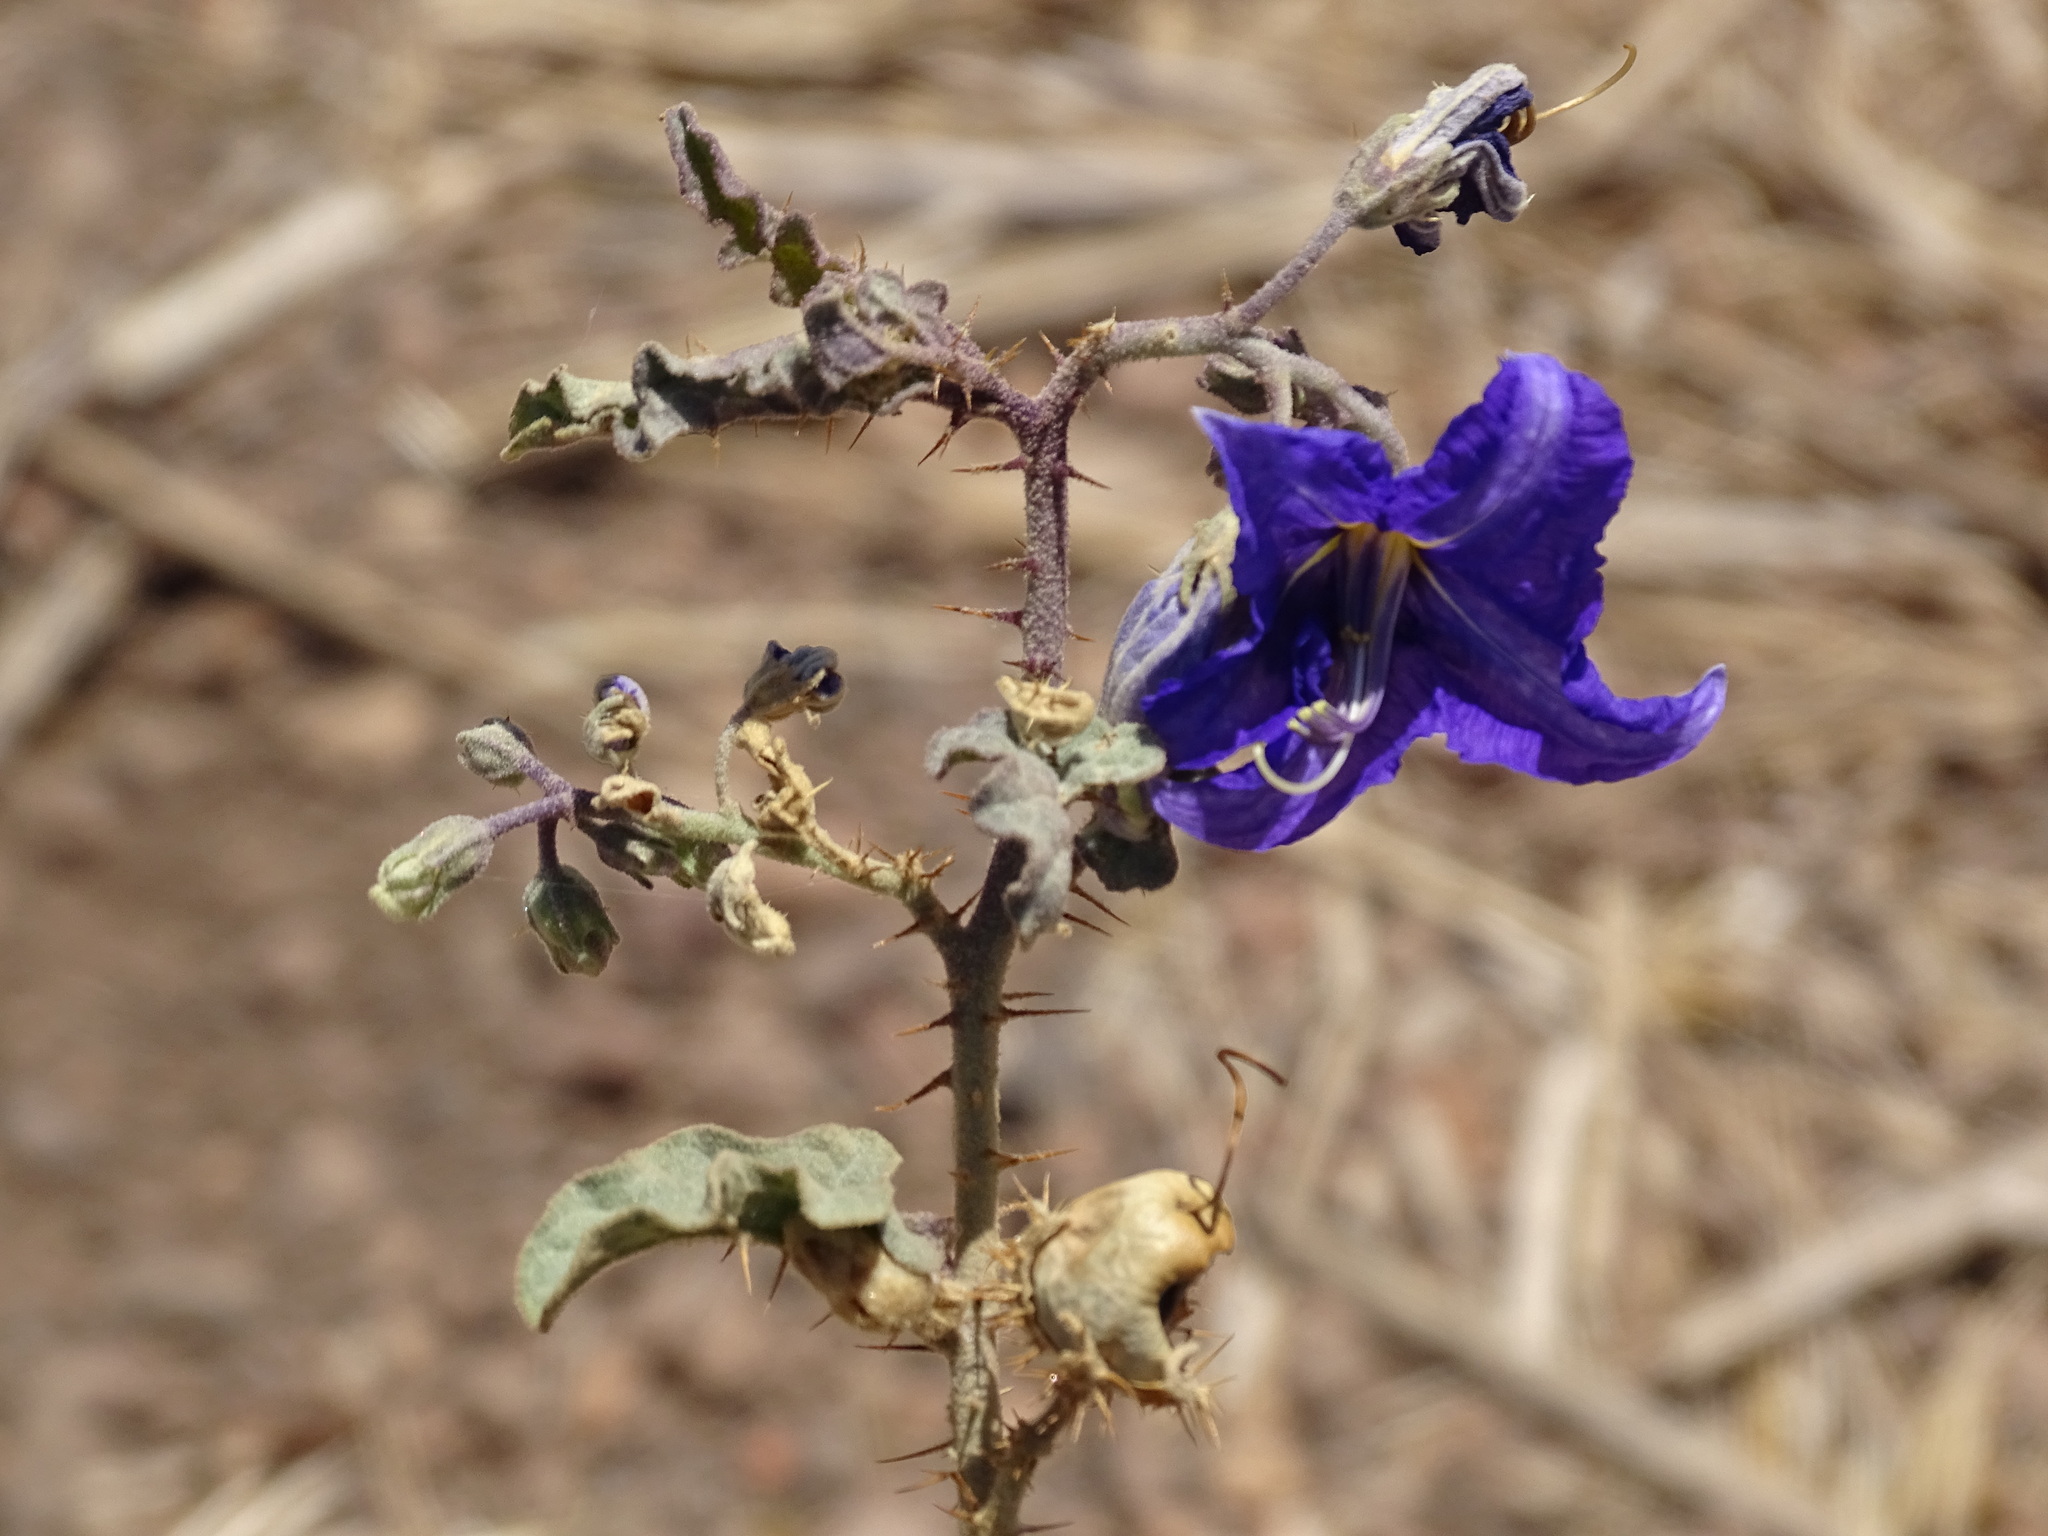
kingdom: Plantae
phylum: Tracheophyta
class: Magnoliopsida
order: Solanales
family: Solanaceae
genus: Solanum
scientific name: Solanum houstonii
